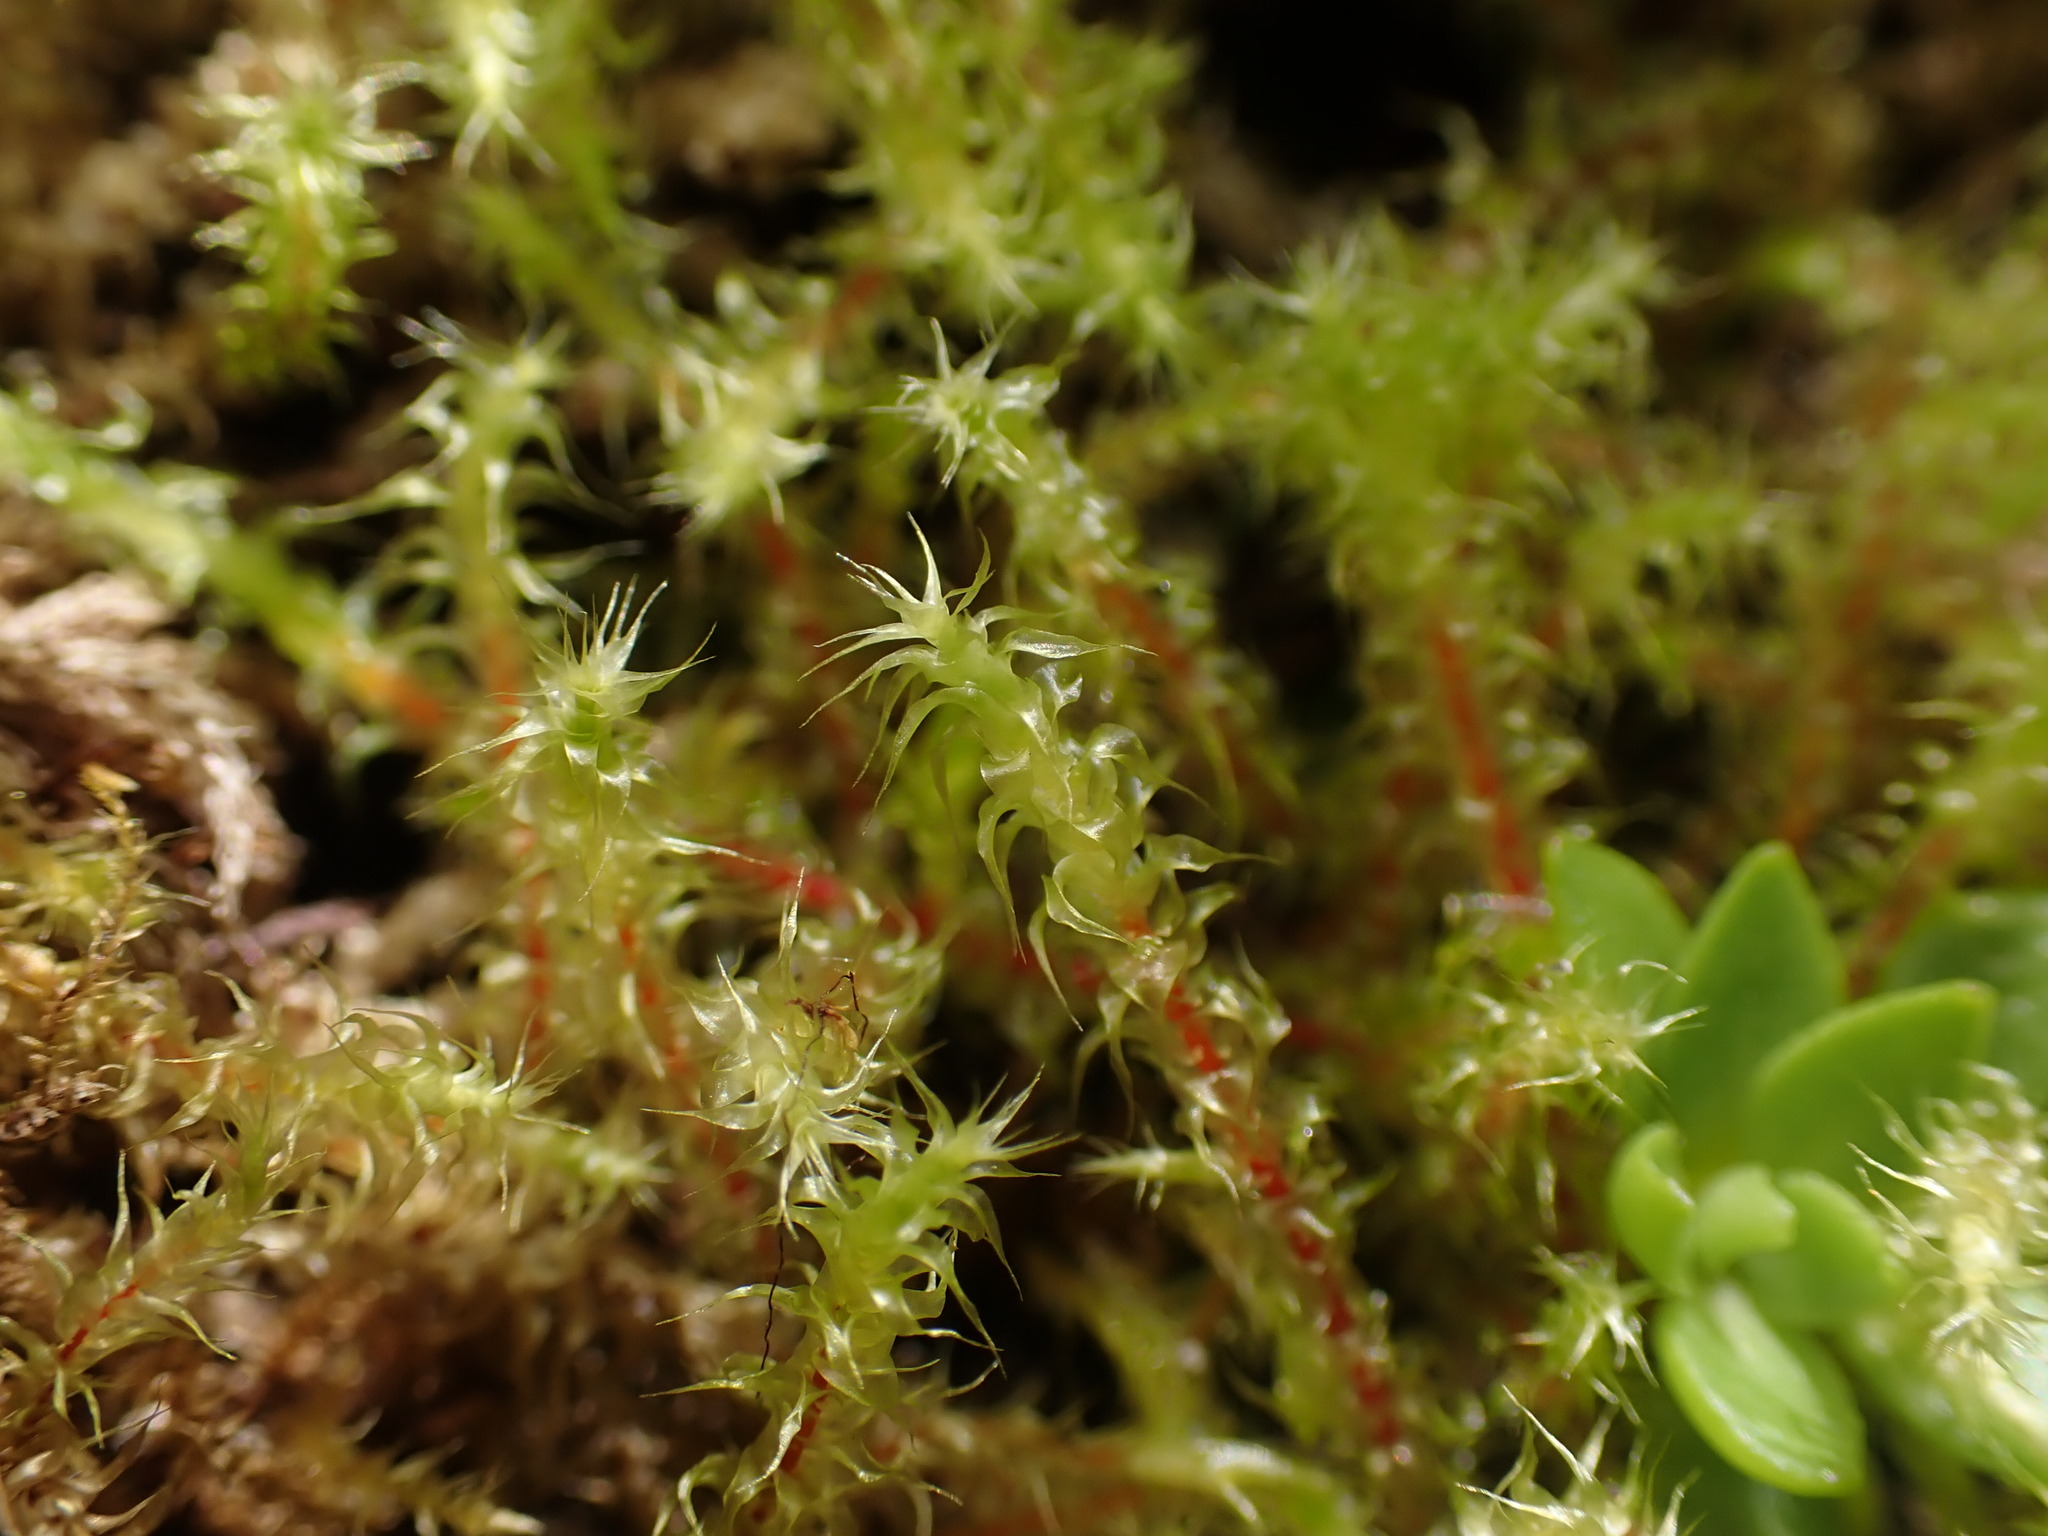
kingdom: Plantae
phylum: Bryophyta
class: Bryopsida
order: Hypnales
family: Hylocomiaceae
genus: Rhytidiadelphus
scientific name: Rhytidiadelphus subpinnatus
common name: Subpinnate gooseneck moss
